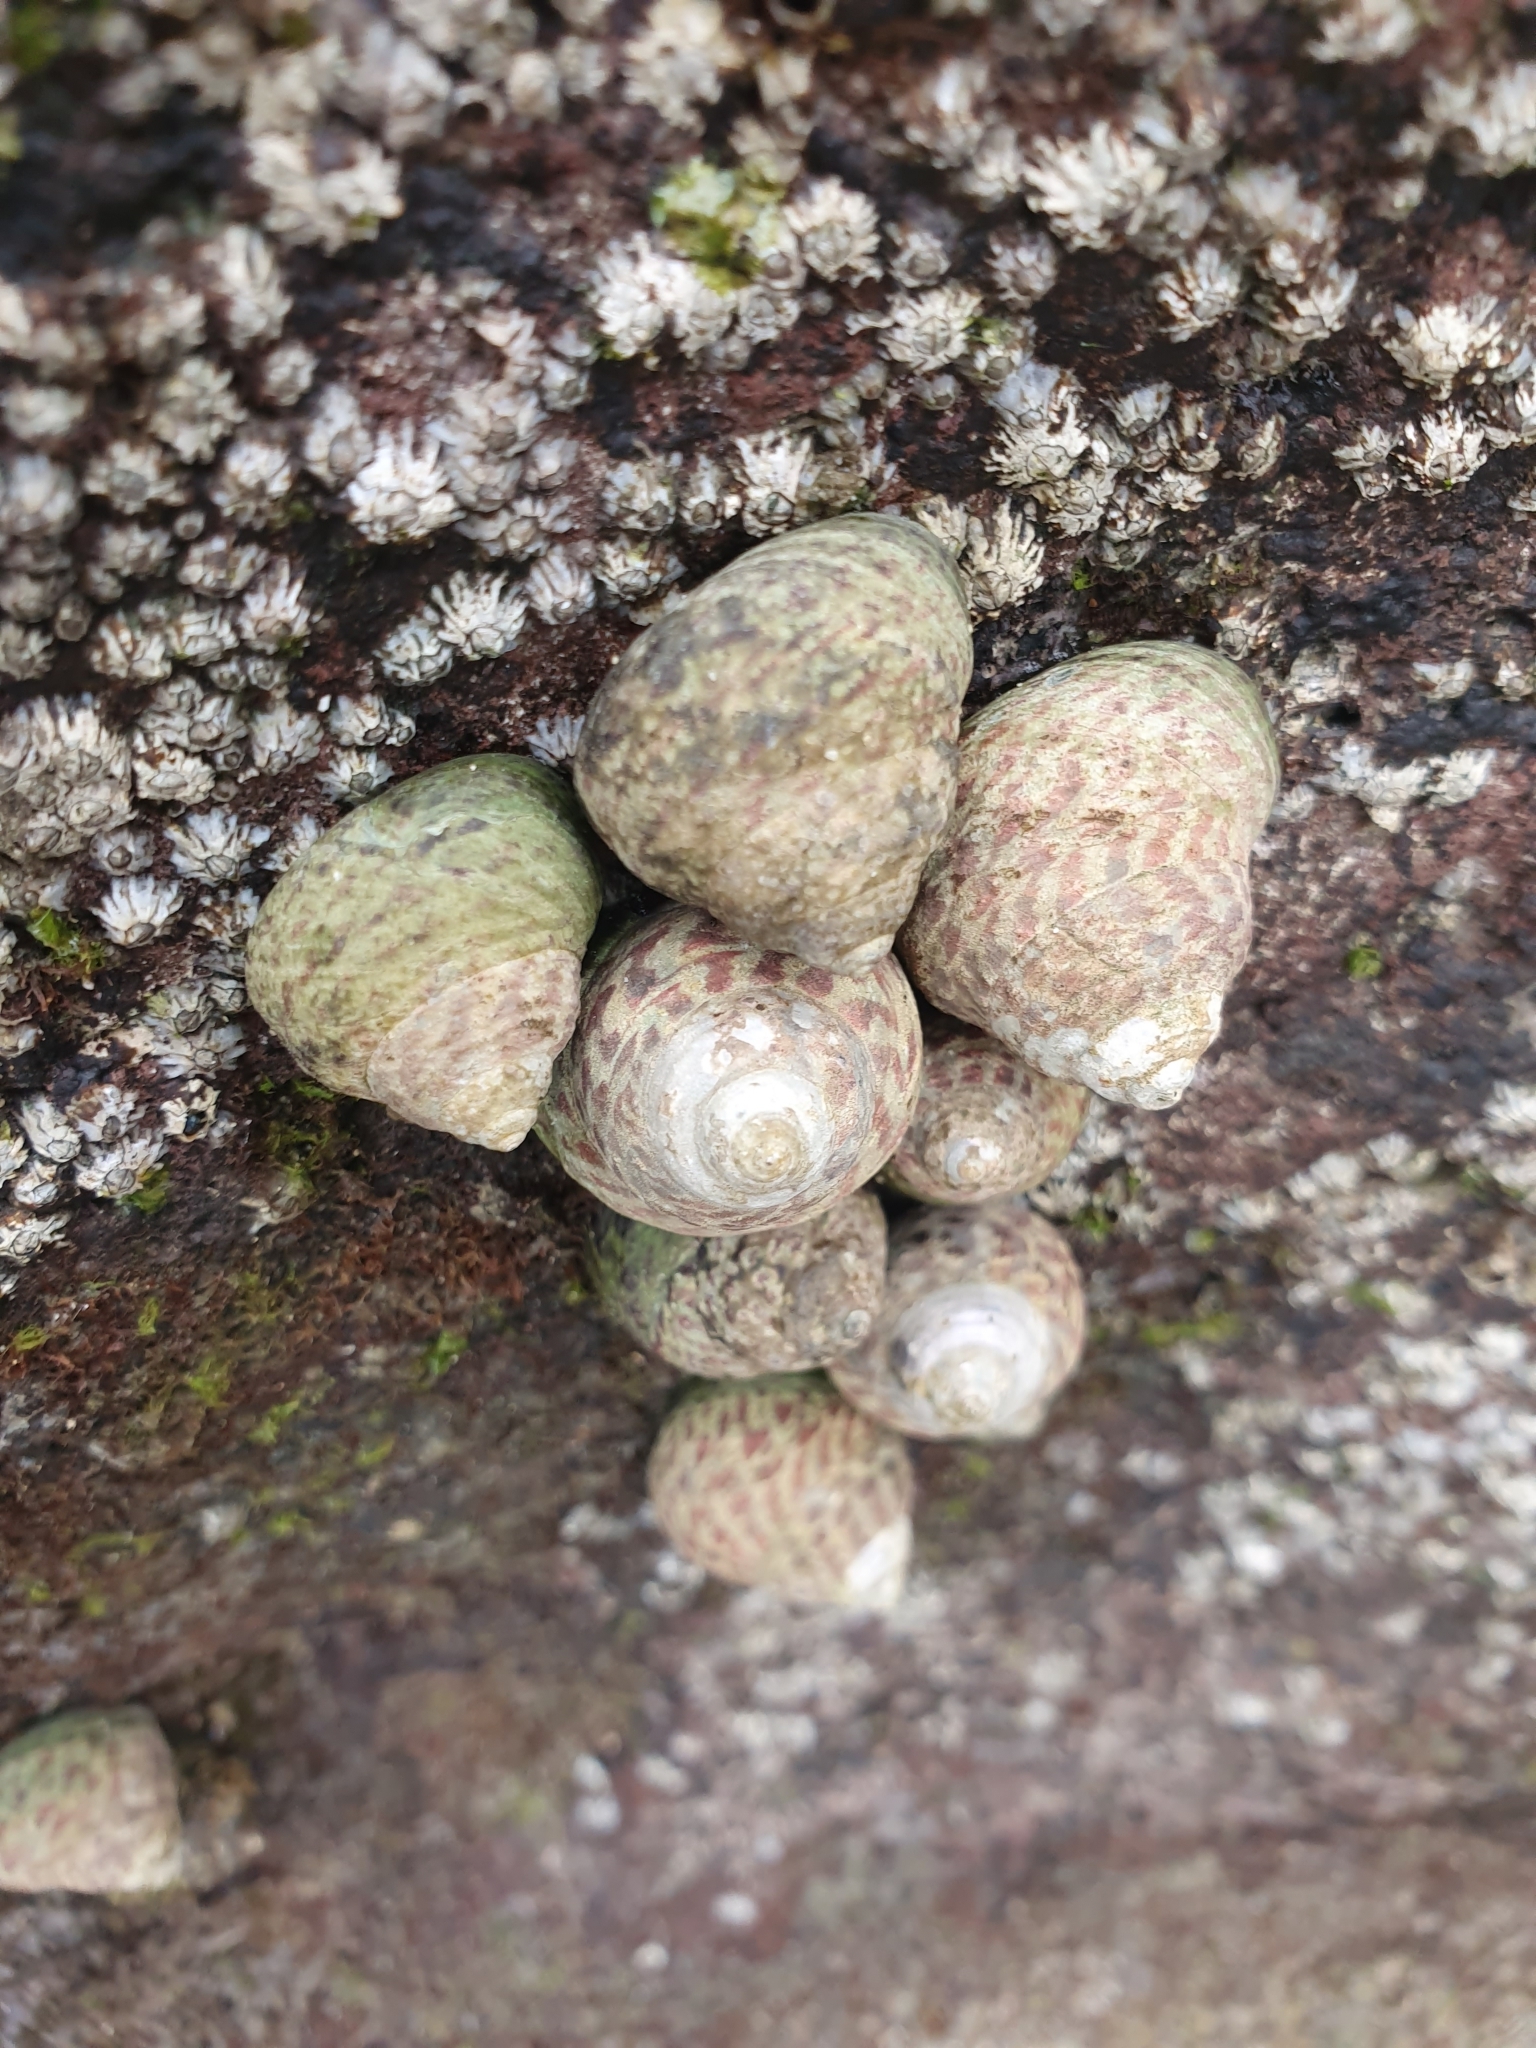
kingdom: Animalia
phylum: Mollusca
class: Gastropoda
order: Trochida
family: Trochidae
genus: Phorcus
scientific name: Phorcus sauciatus
